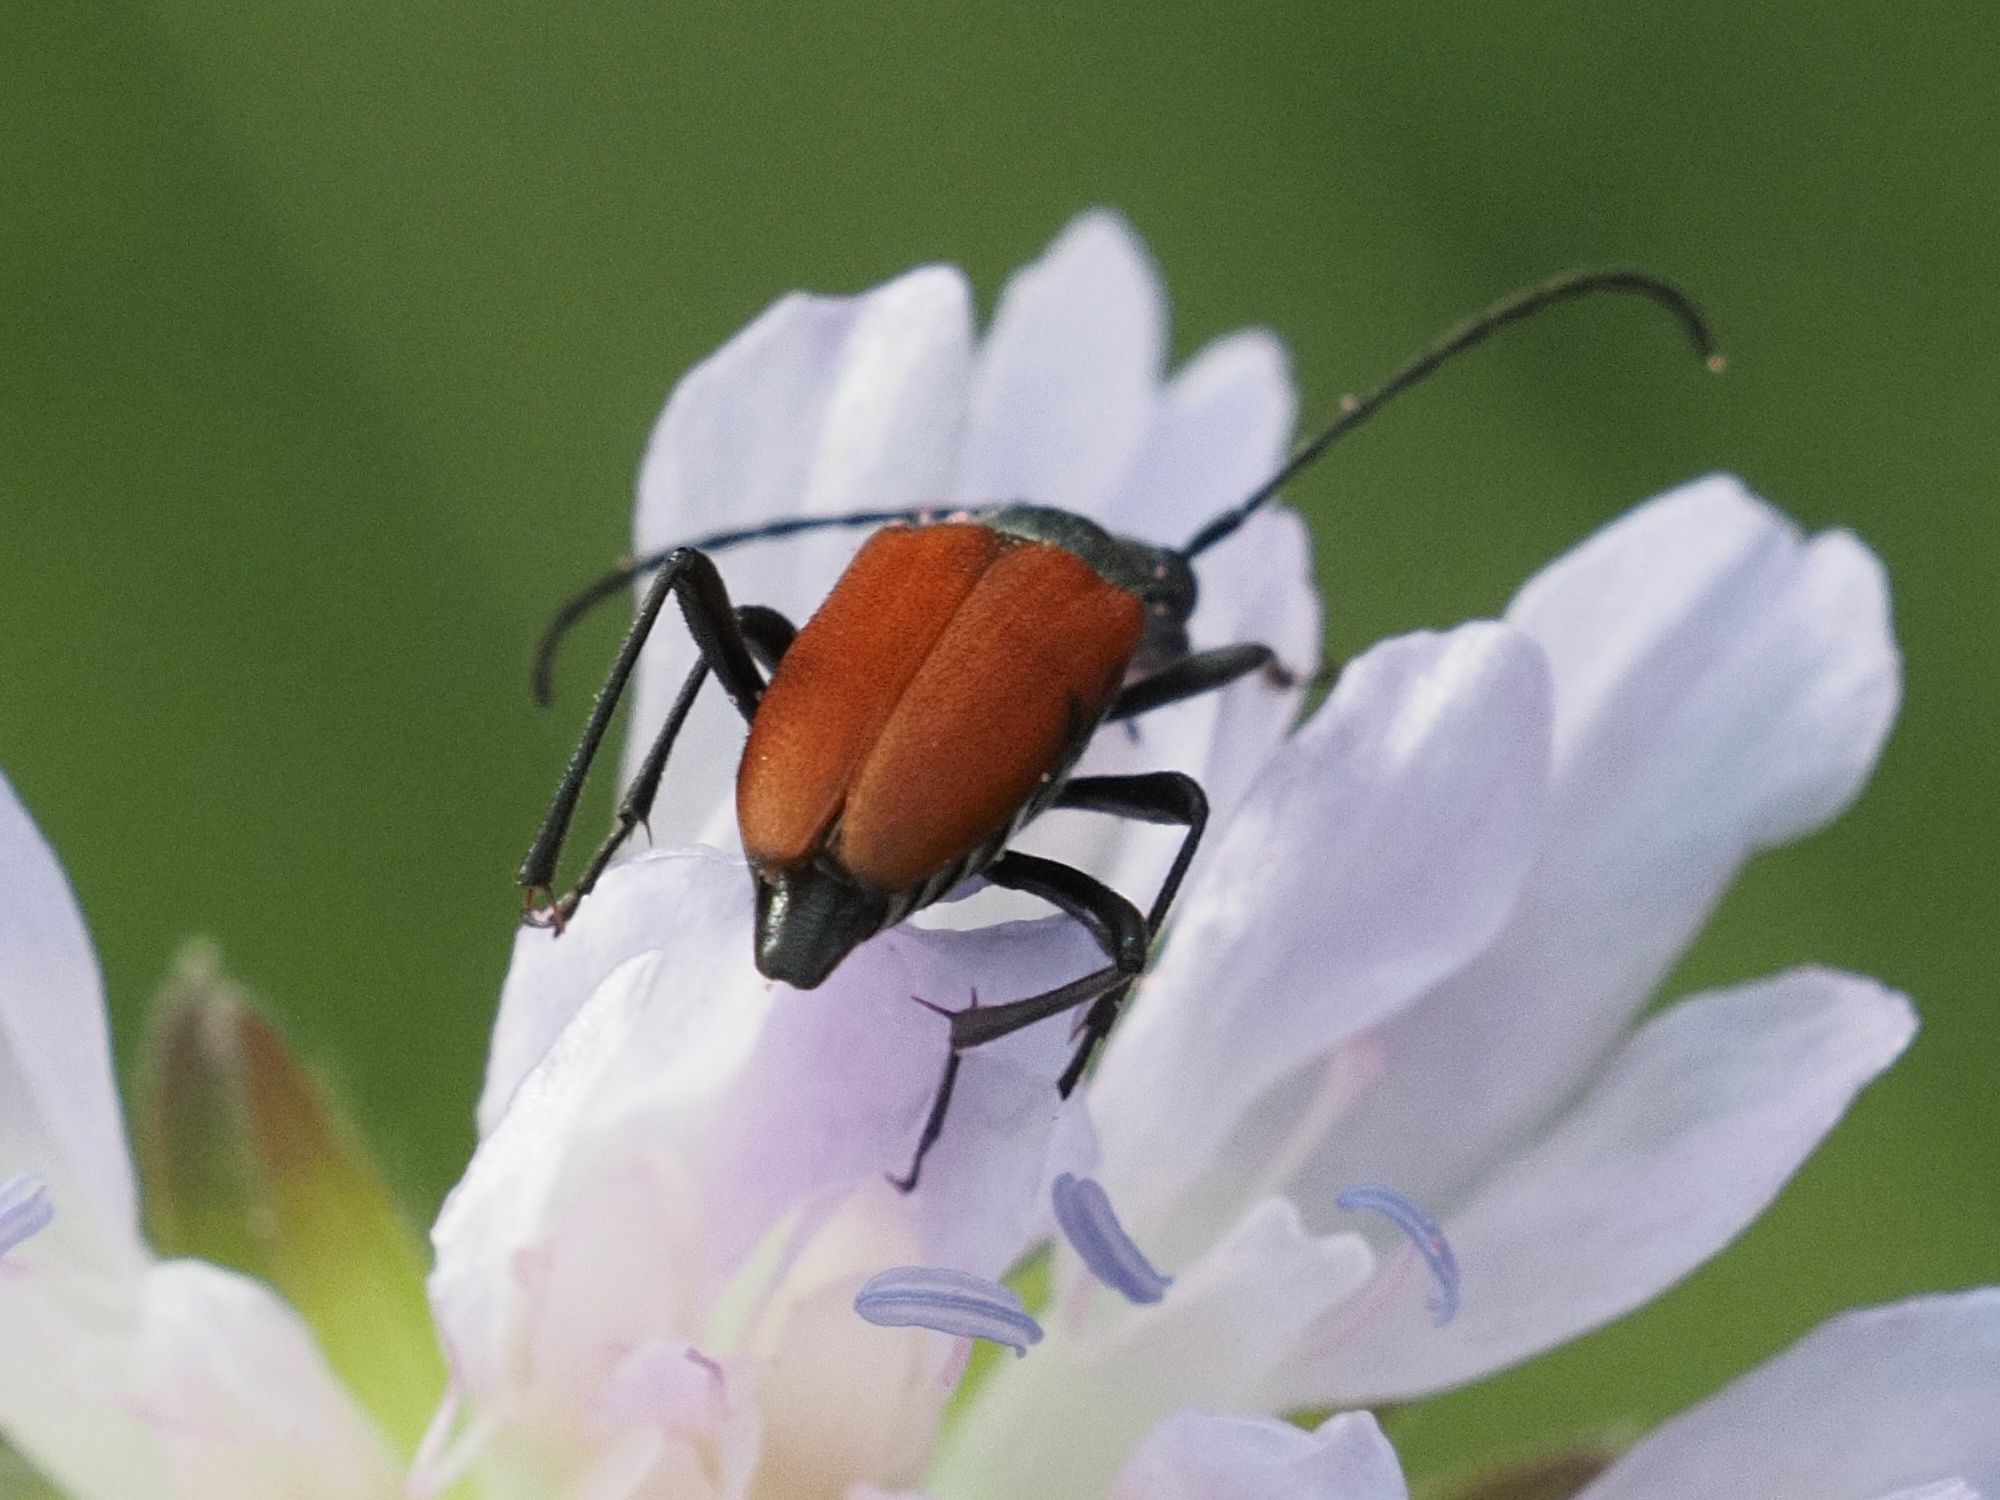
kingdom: Animalia
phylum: Arthropoda
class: Insecta
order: Coleoptera
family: Cerambycidae
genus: Anastrangalia
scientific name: Anastrangalia sanguinolenta
